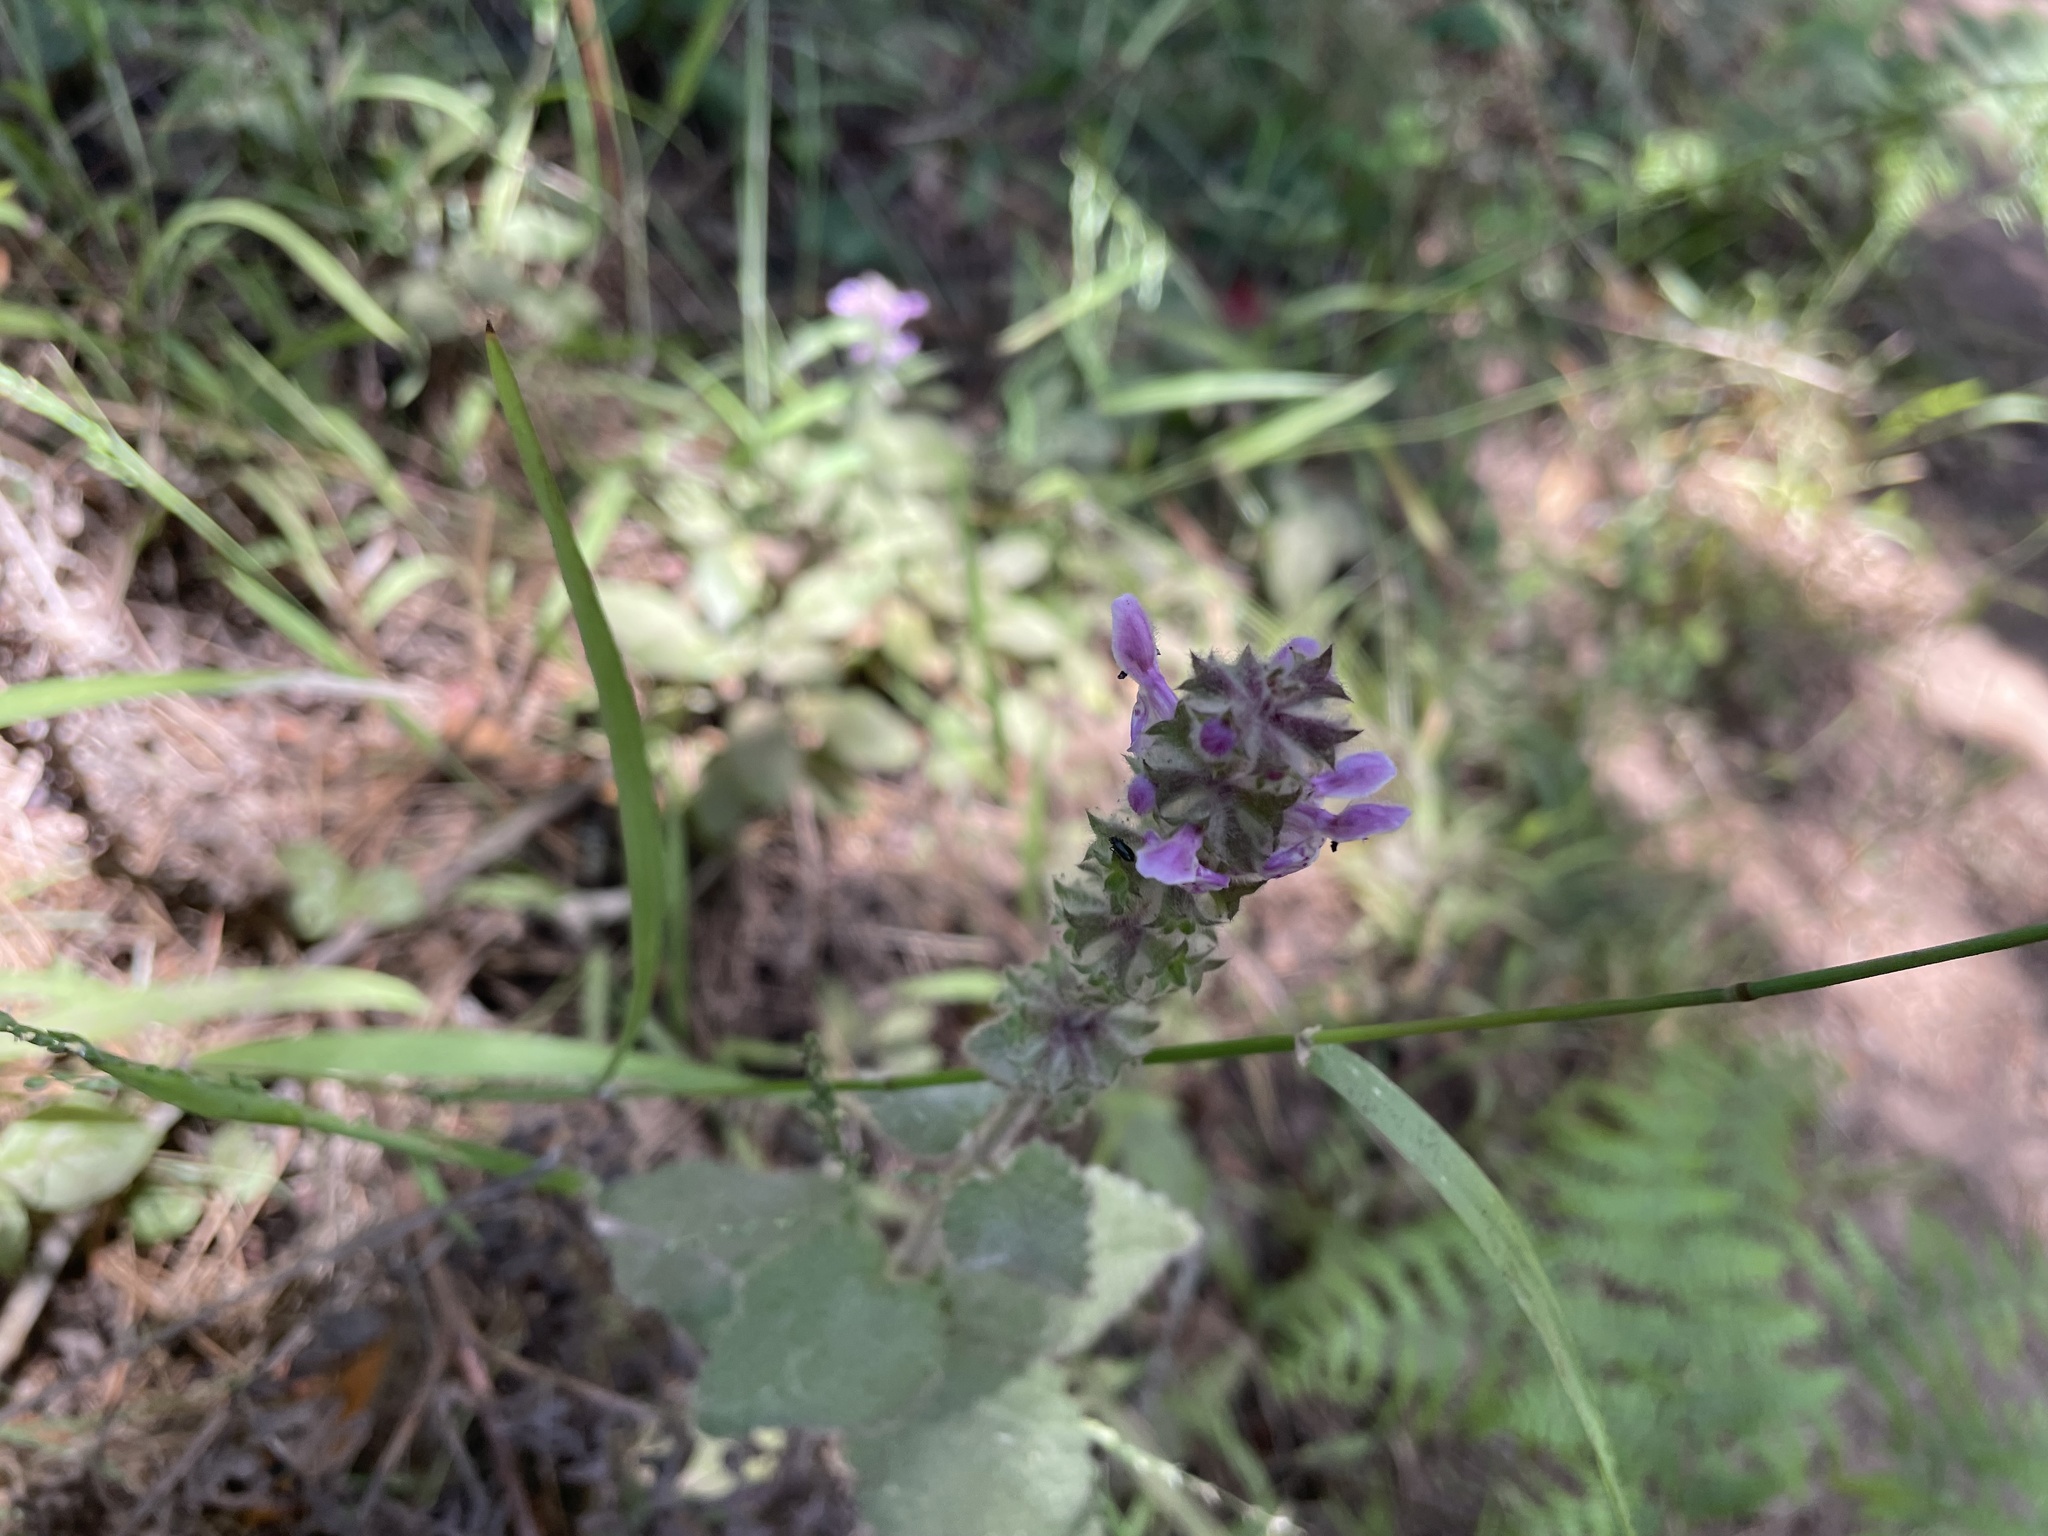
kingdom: Plantae
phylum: Tracheophyta
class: Magnoliopsida
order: Lamiales
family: Lamiaceae
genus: Stachys
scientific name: Stachys rigida
